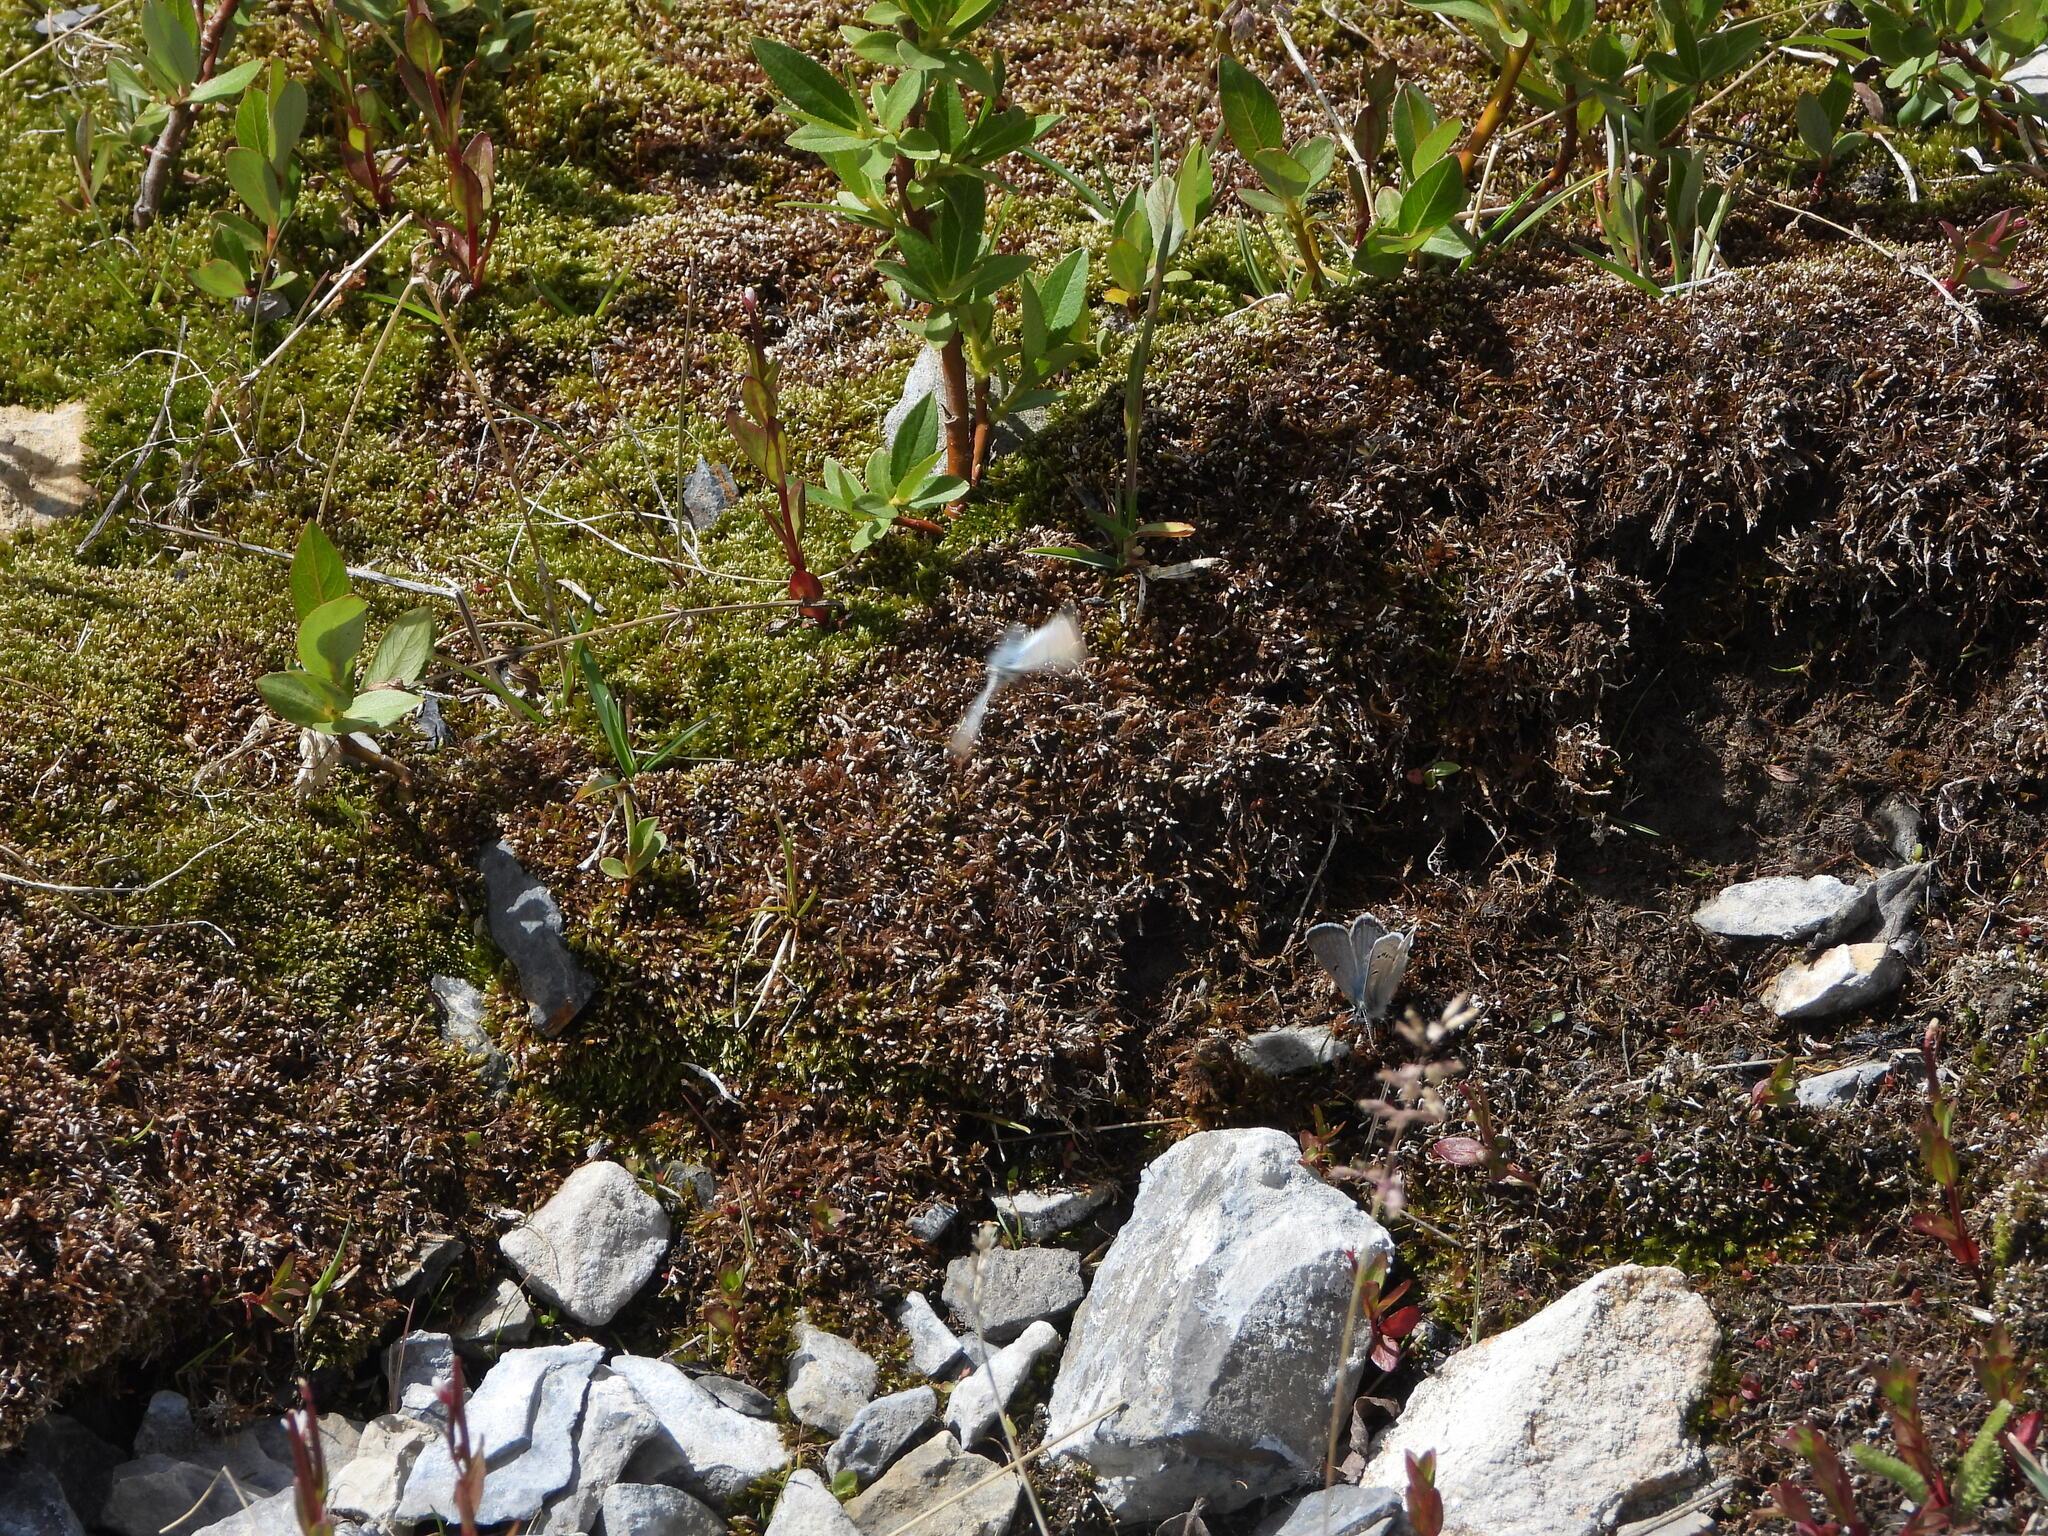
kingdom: Animalia
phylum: Arthropoda
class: Insecta
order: Lepidoptera
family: Lycaenidae
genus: Agriades
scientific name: Agriades glandon
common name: Glandon blue
